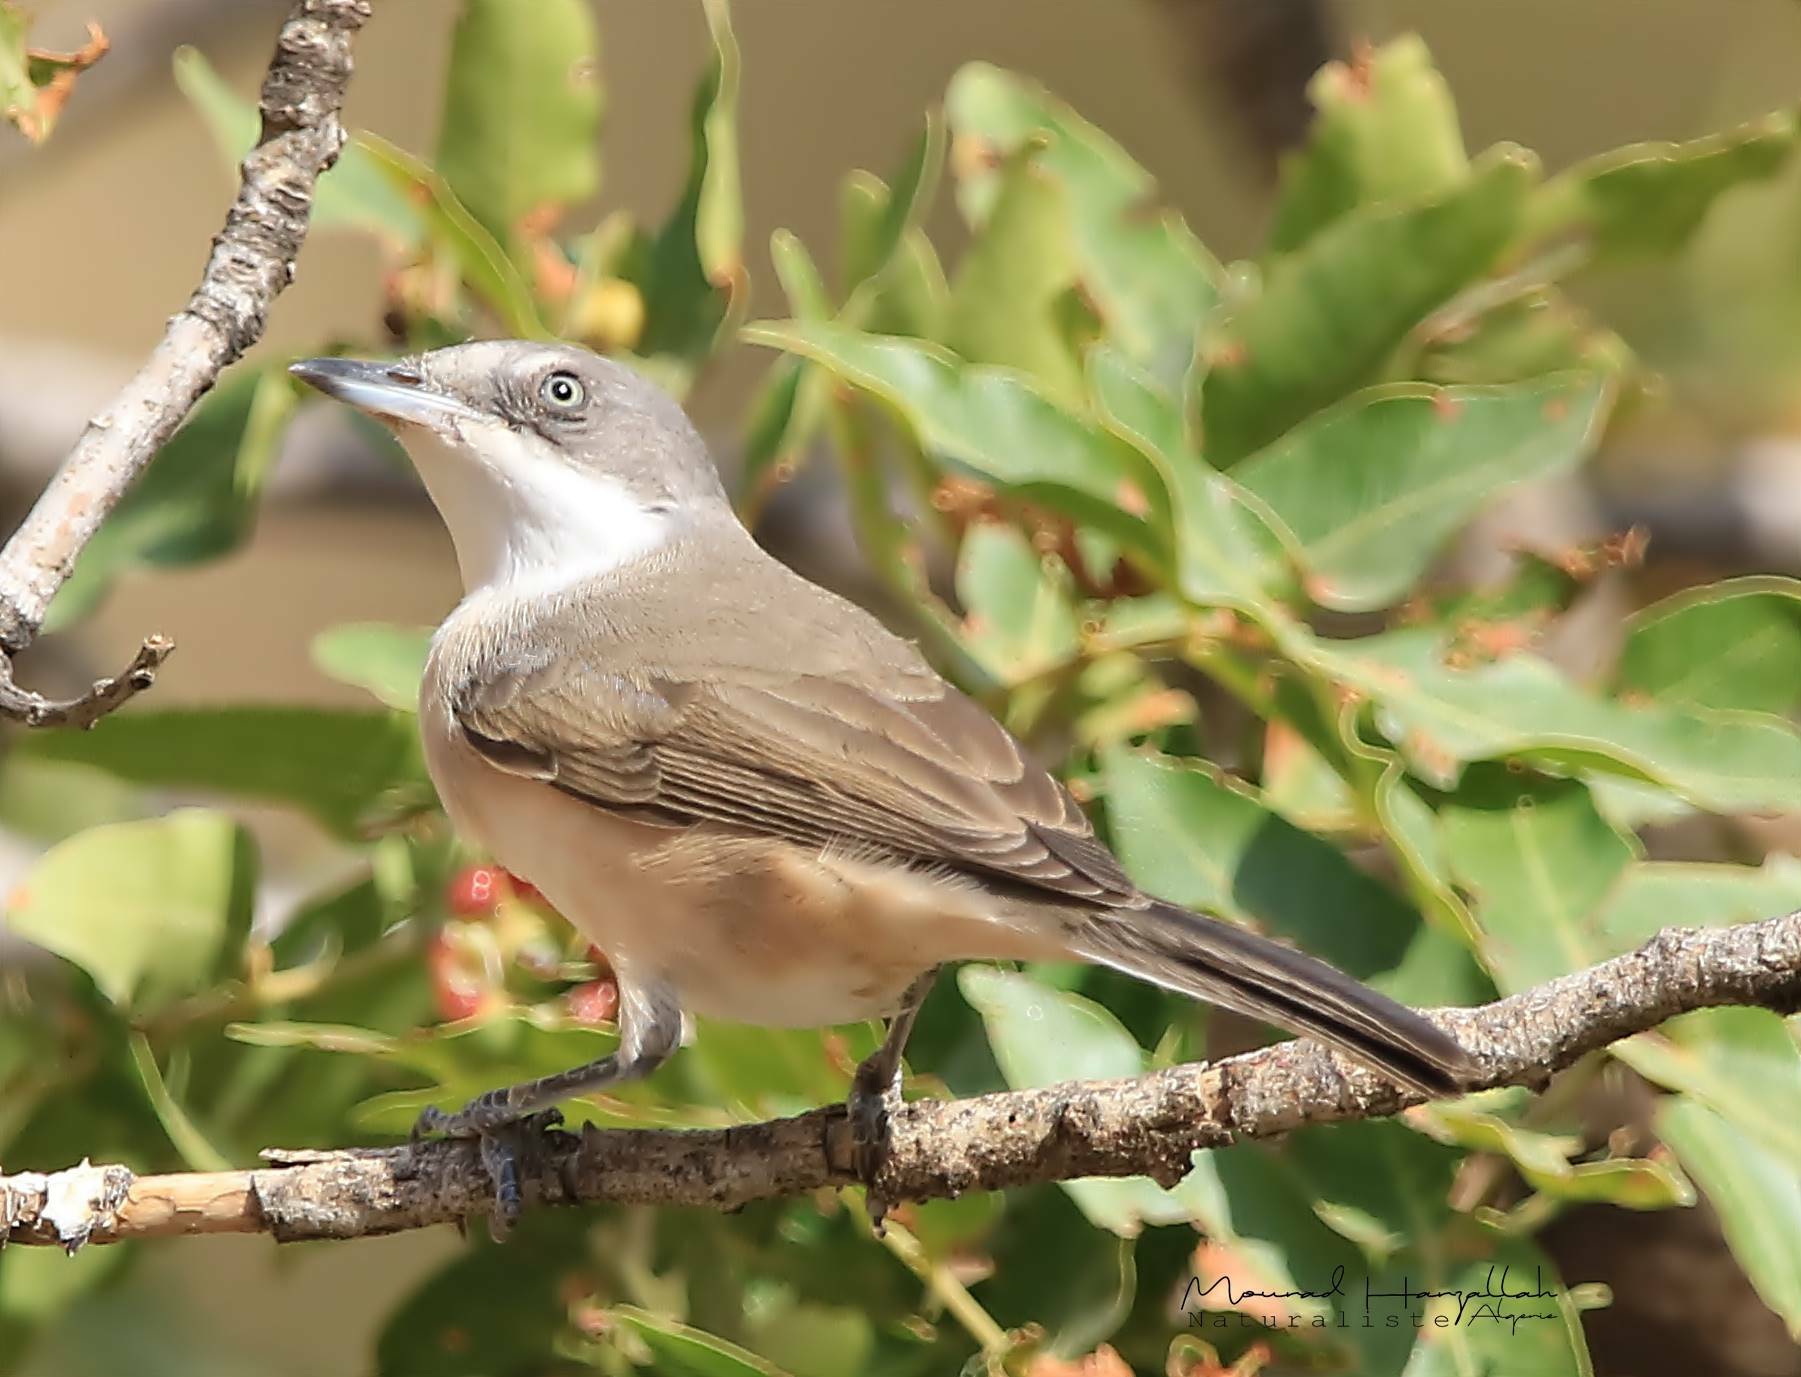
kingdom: Animalia
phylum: Chordata
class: Aves
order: Passeriformes
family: Sylviidae
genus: Sylvia
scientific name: Sylvia hortensis
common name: Orphean warbler
